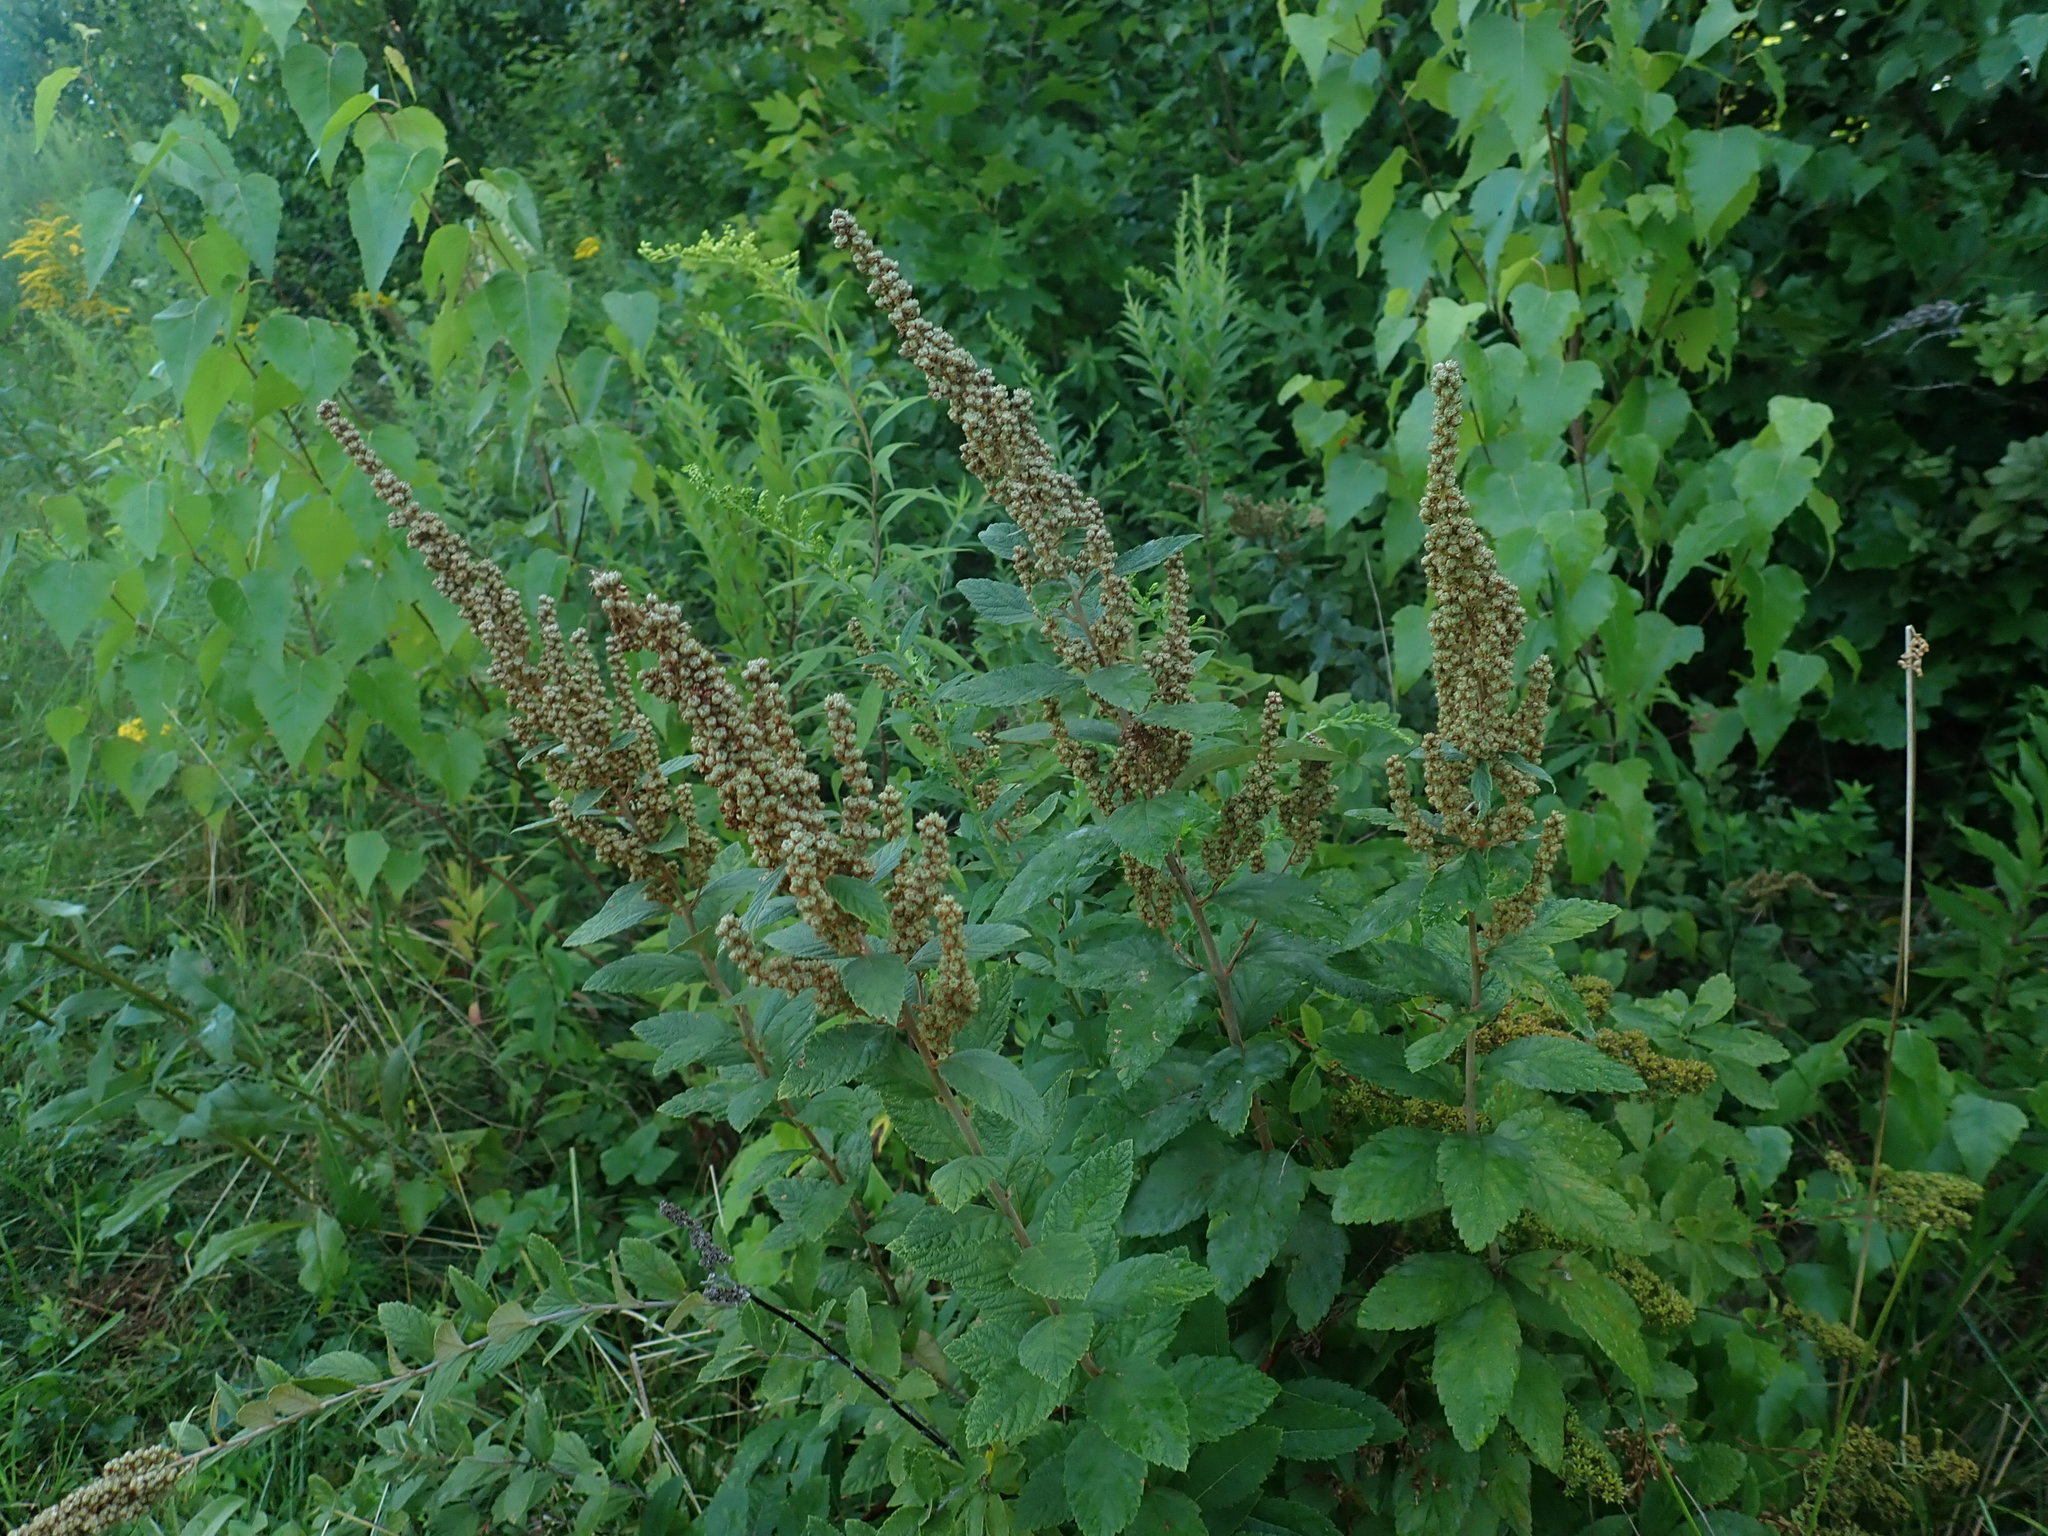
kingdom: Plantae
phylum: Tracheophyta
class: Magnoliopsida
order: Rosales
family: Rosaceae
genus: Spiraea
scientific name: Spiraea tomentosa
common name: Hardhack
